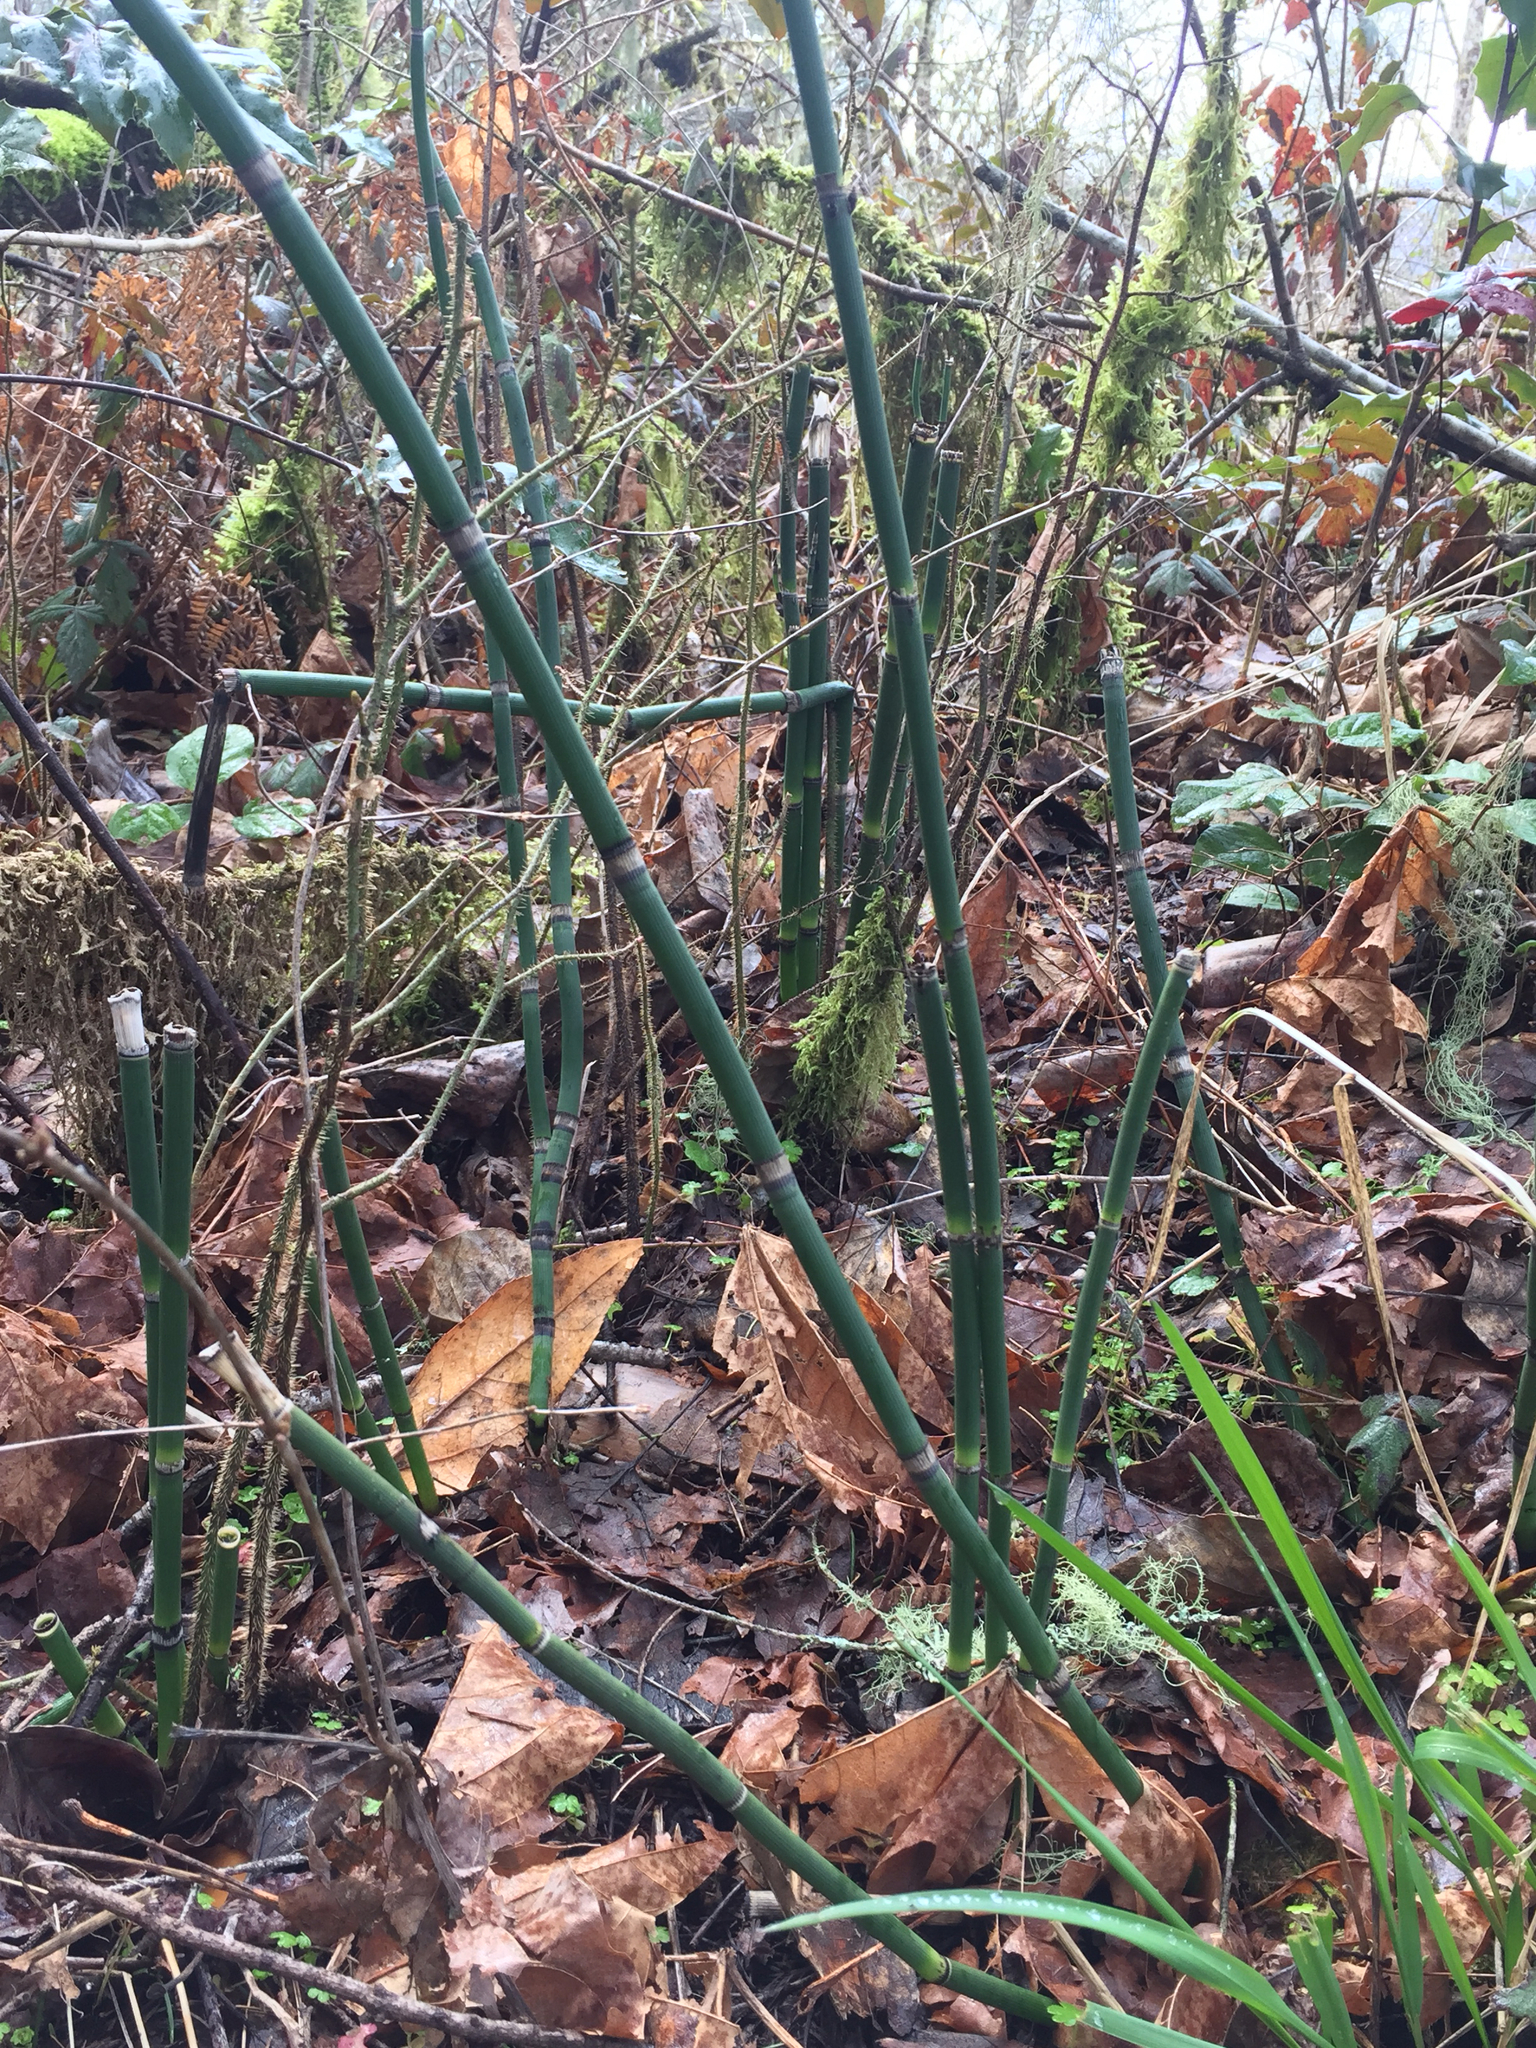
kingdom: Plantae
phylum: Tracheophyta
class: Polypodiopsida
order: Equisetales
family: Equisetaceae
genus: Equisetum
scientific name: Equisetum hyemale
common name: Rough horsetail
